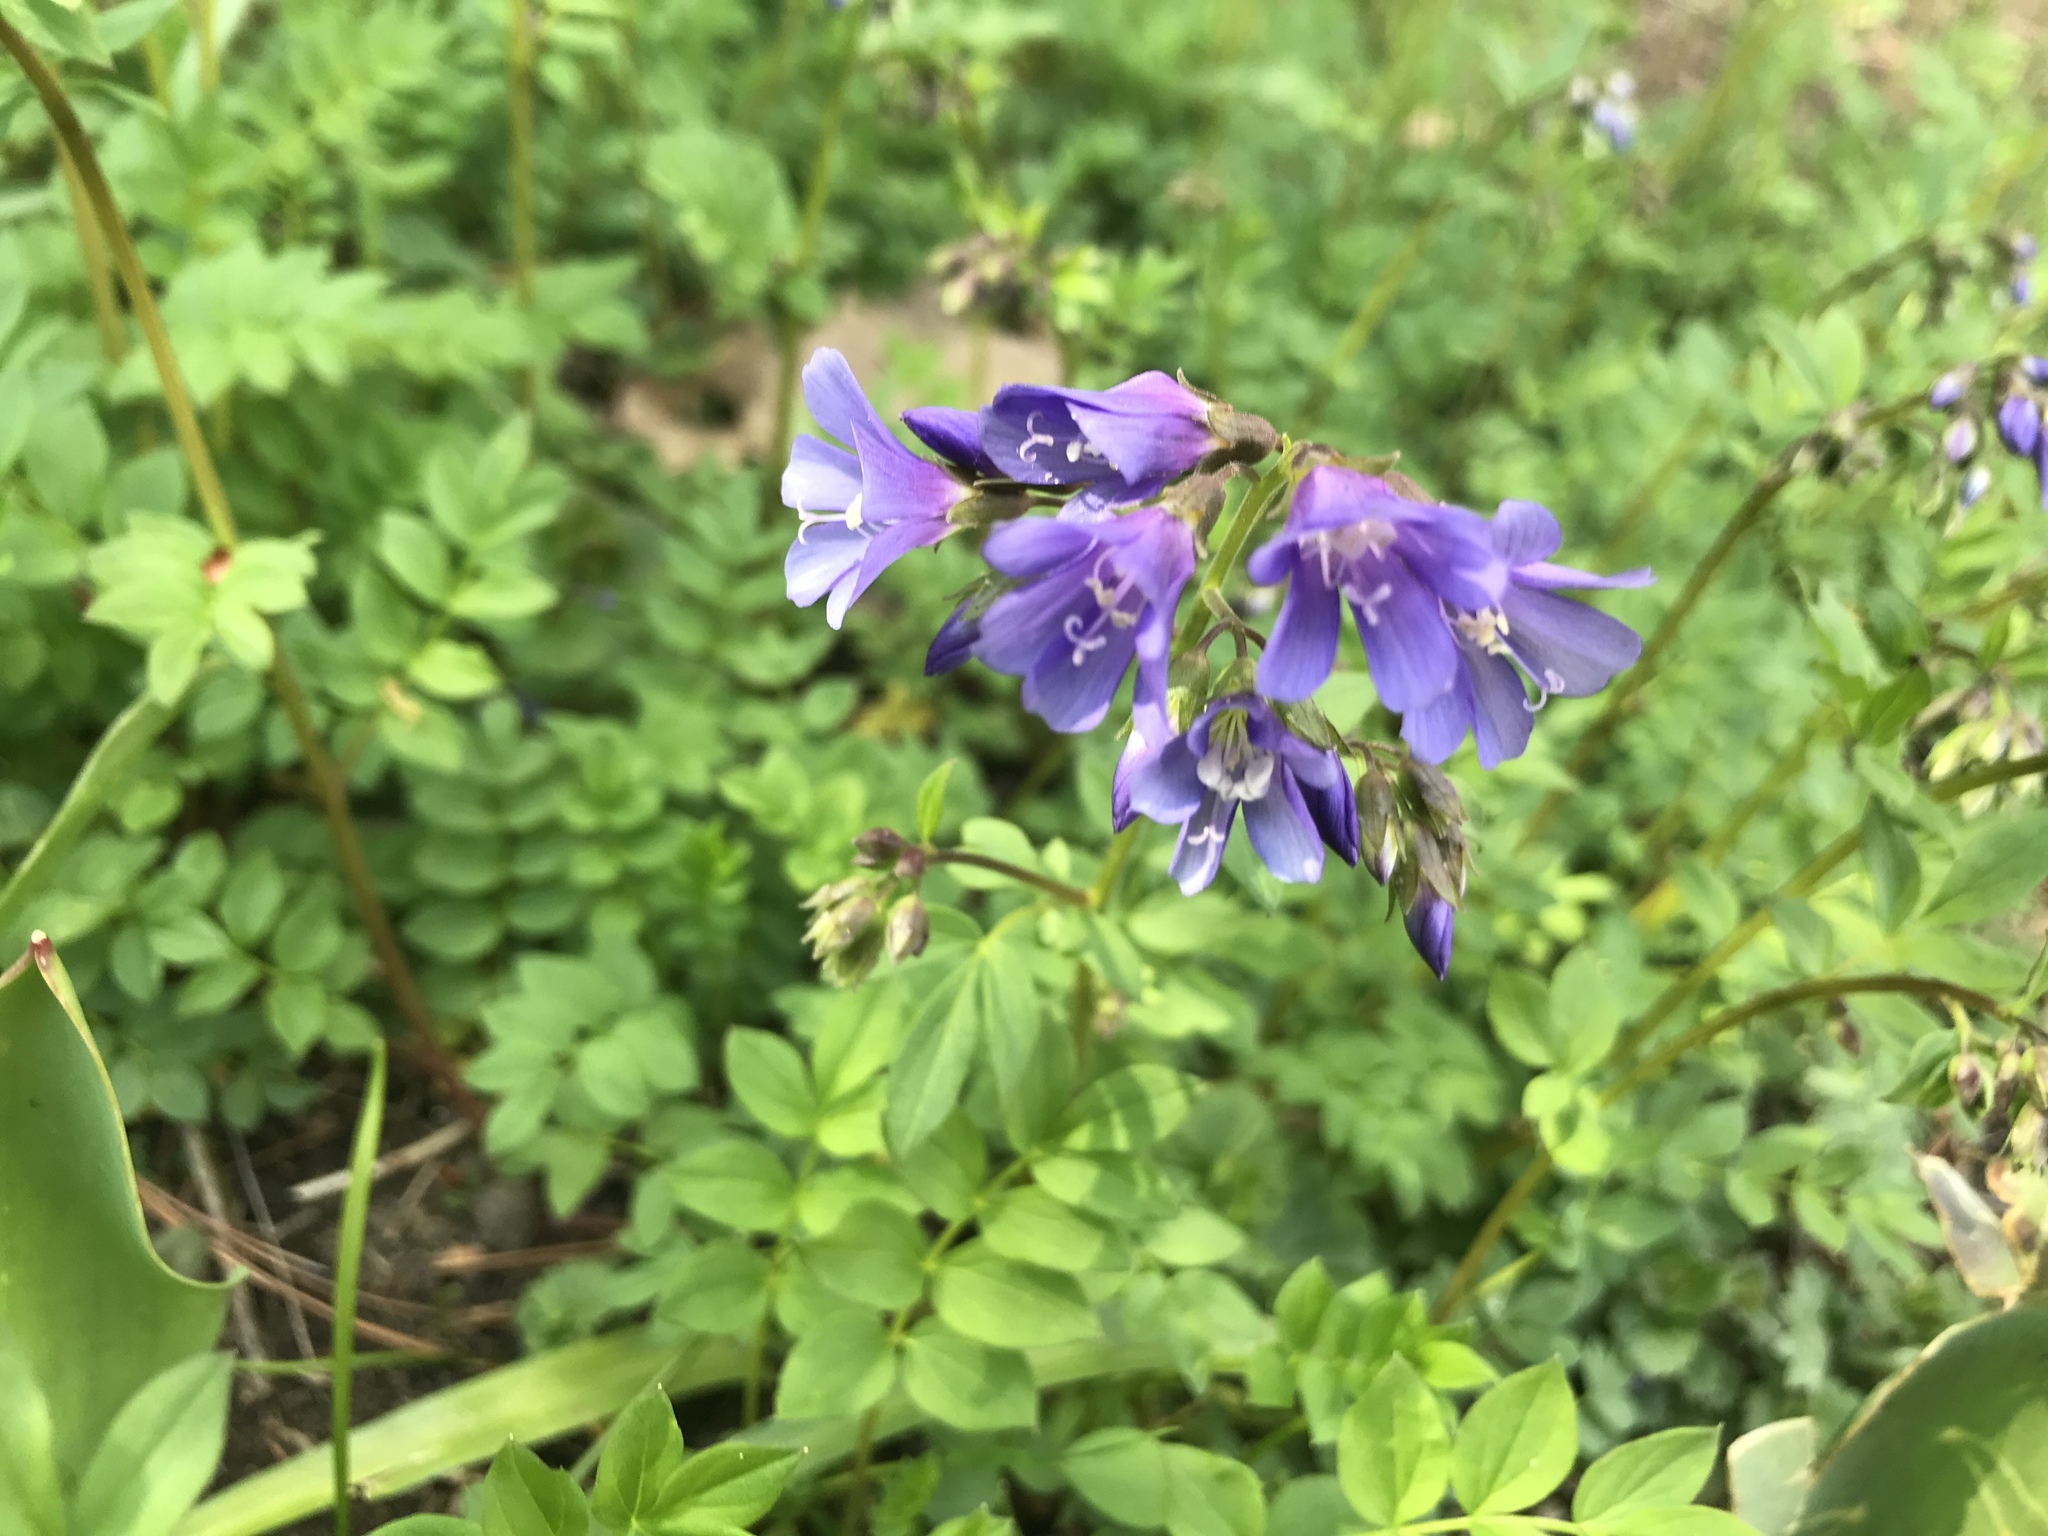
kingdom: Plantae
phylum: Tracheophyta
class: Magnoliopsida
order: Ericales
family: Polemoniaceae
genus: Polemonium
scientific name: Polemonium reptans
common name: Creeping jacob's-ladder
